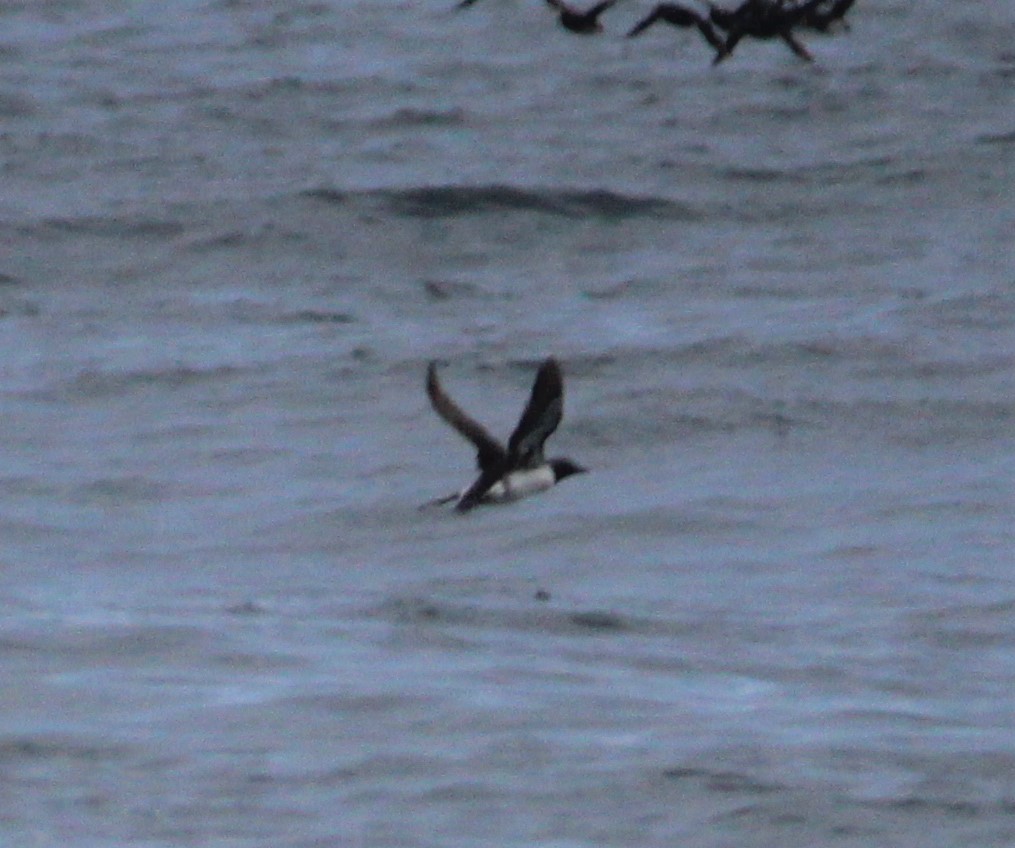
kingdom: Animalia
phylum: Chordata
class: Aves
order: Charadriiformes
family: Alcidae
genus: Uria
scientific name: Uria aalge
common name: Common murre
